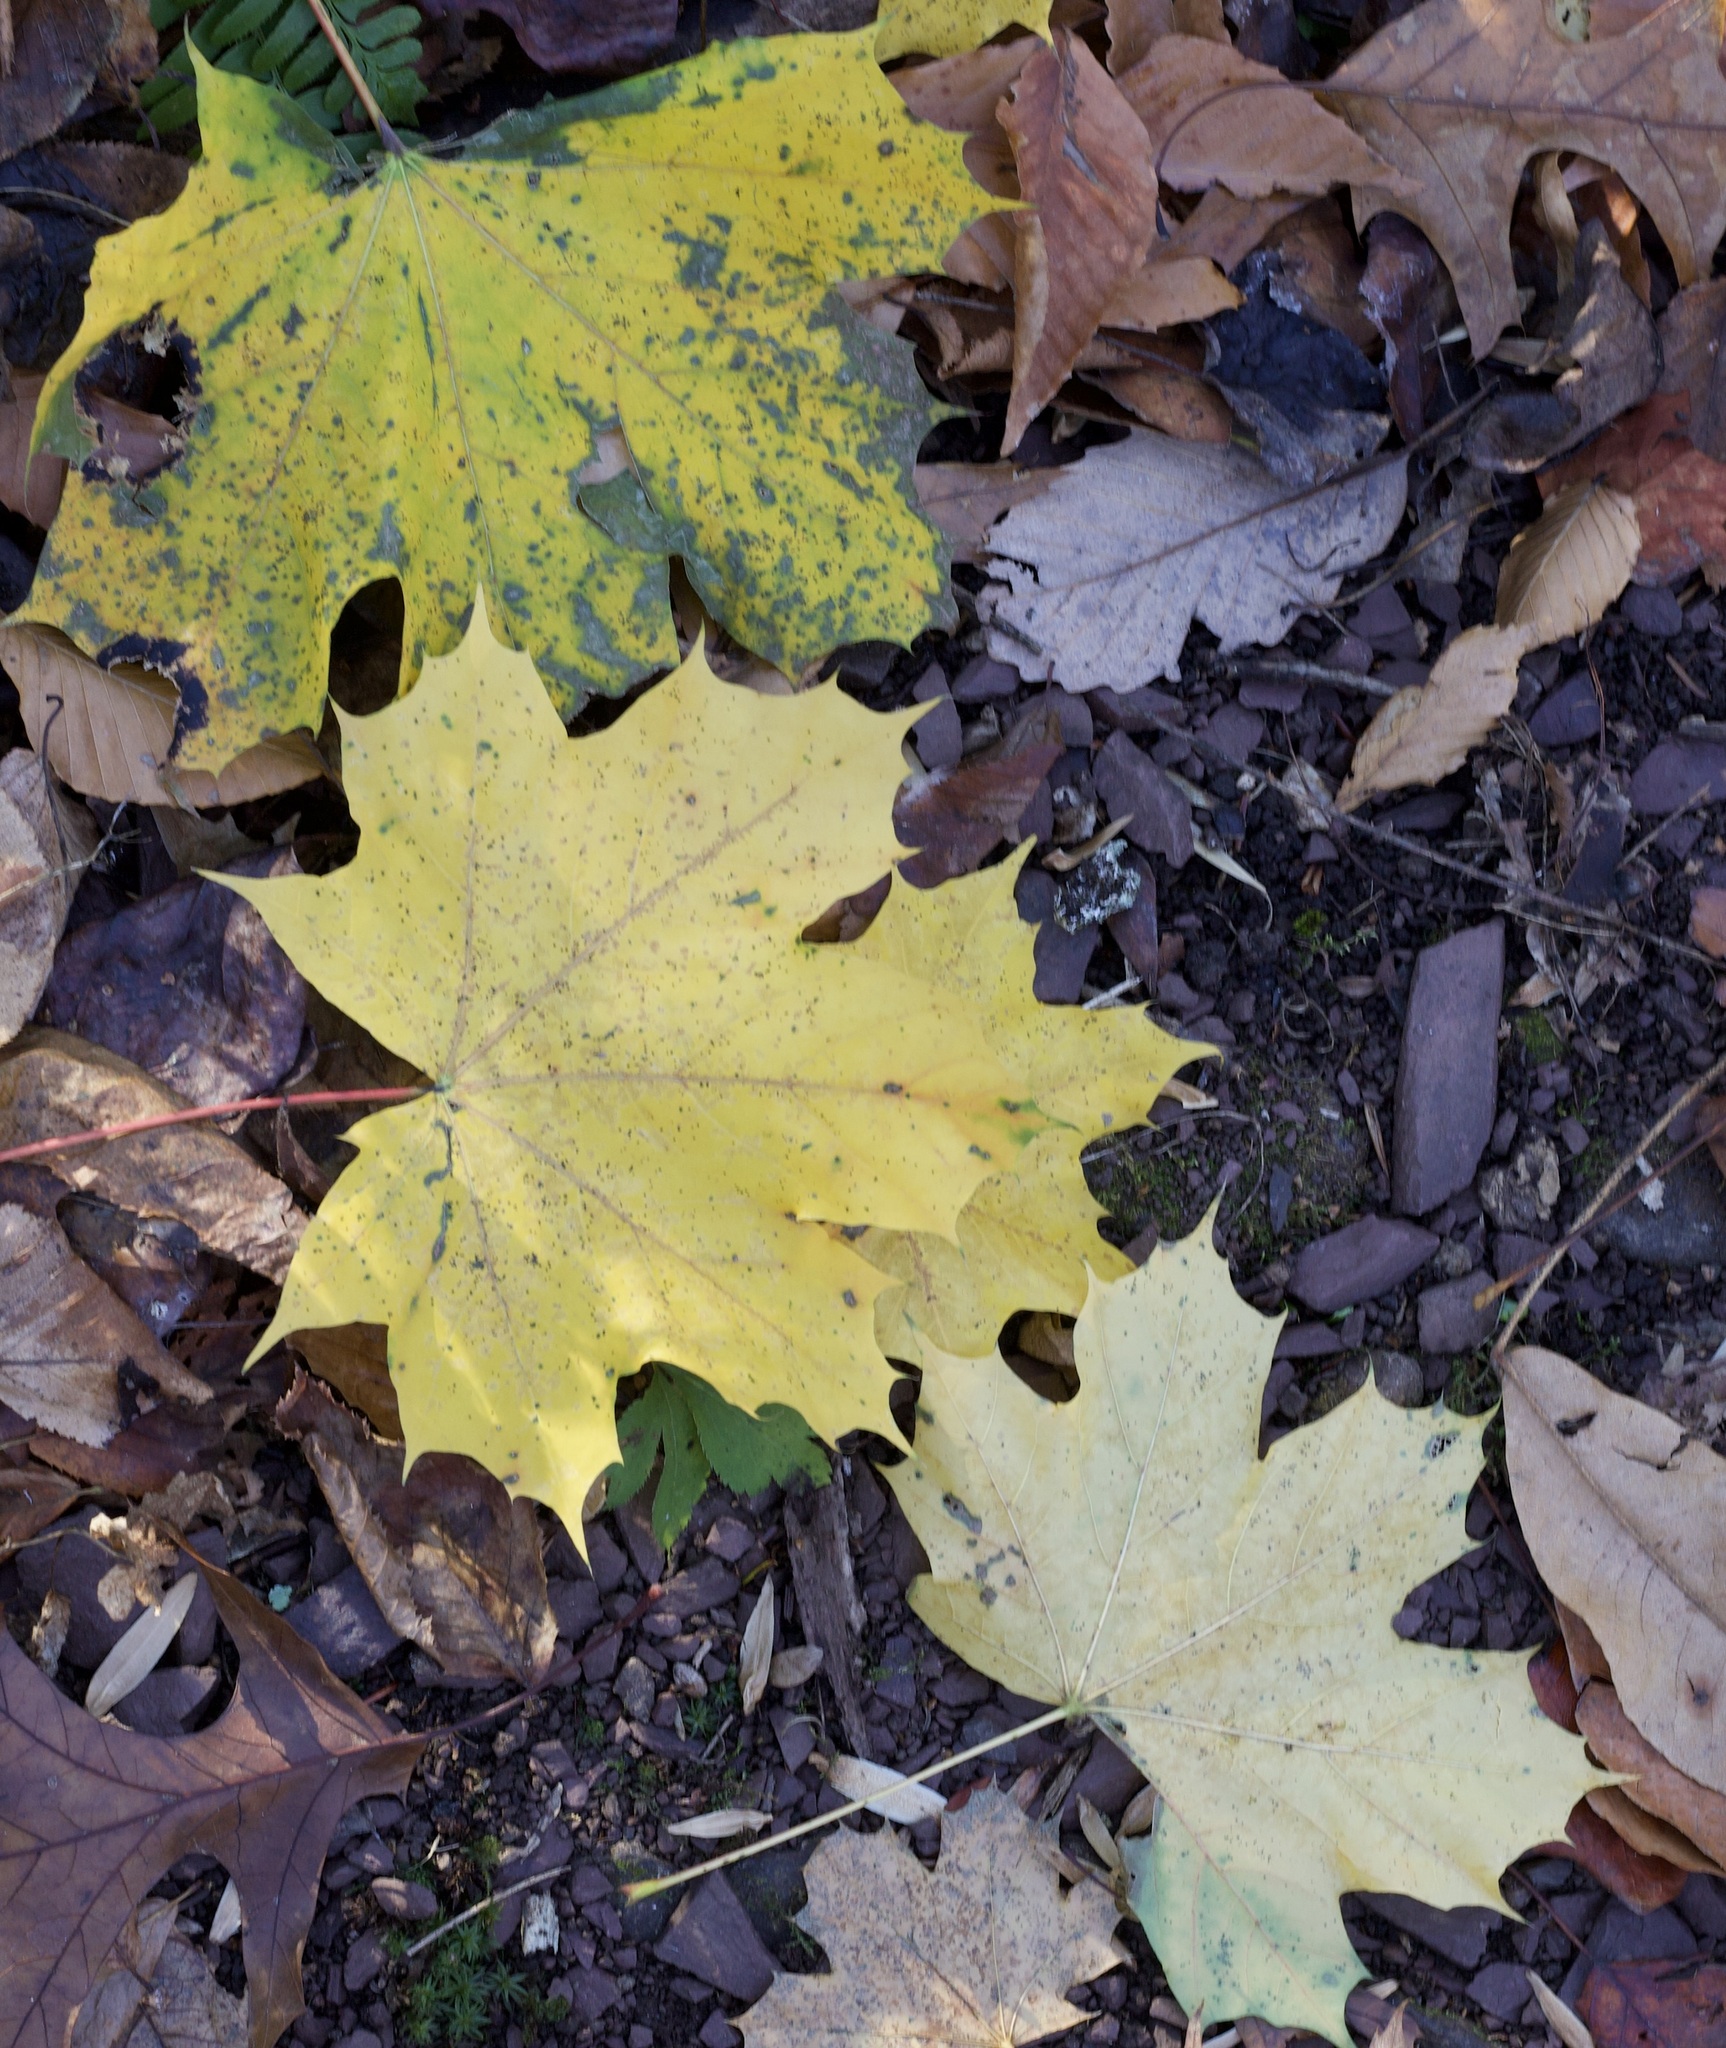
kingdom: Plantae
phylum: Tracheophyta
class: Magnoliopsida
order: Sapindales
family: Sapindaceae
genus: Acer
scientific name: Acer platanoides
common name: Norway maple
